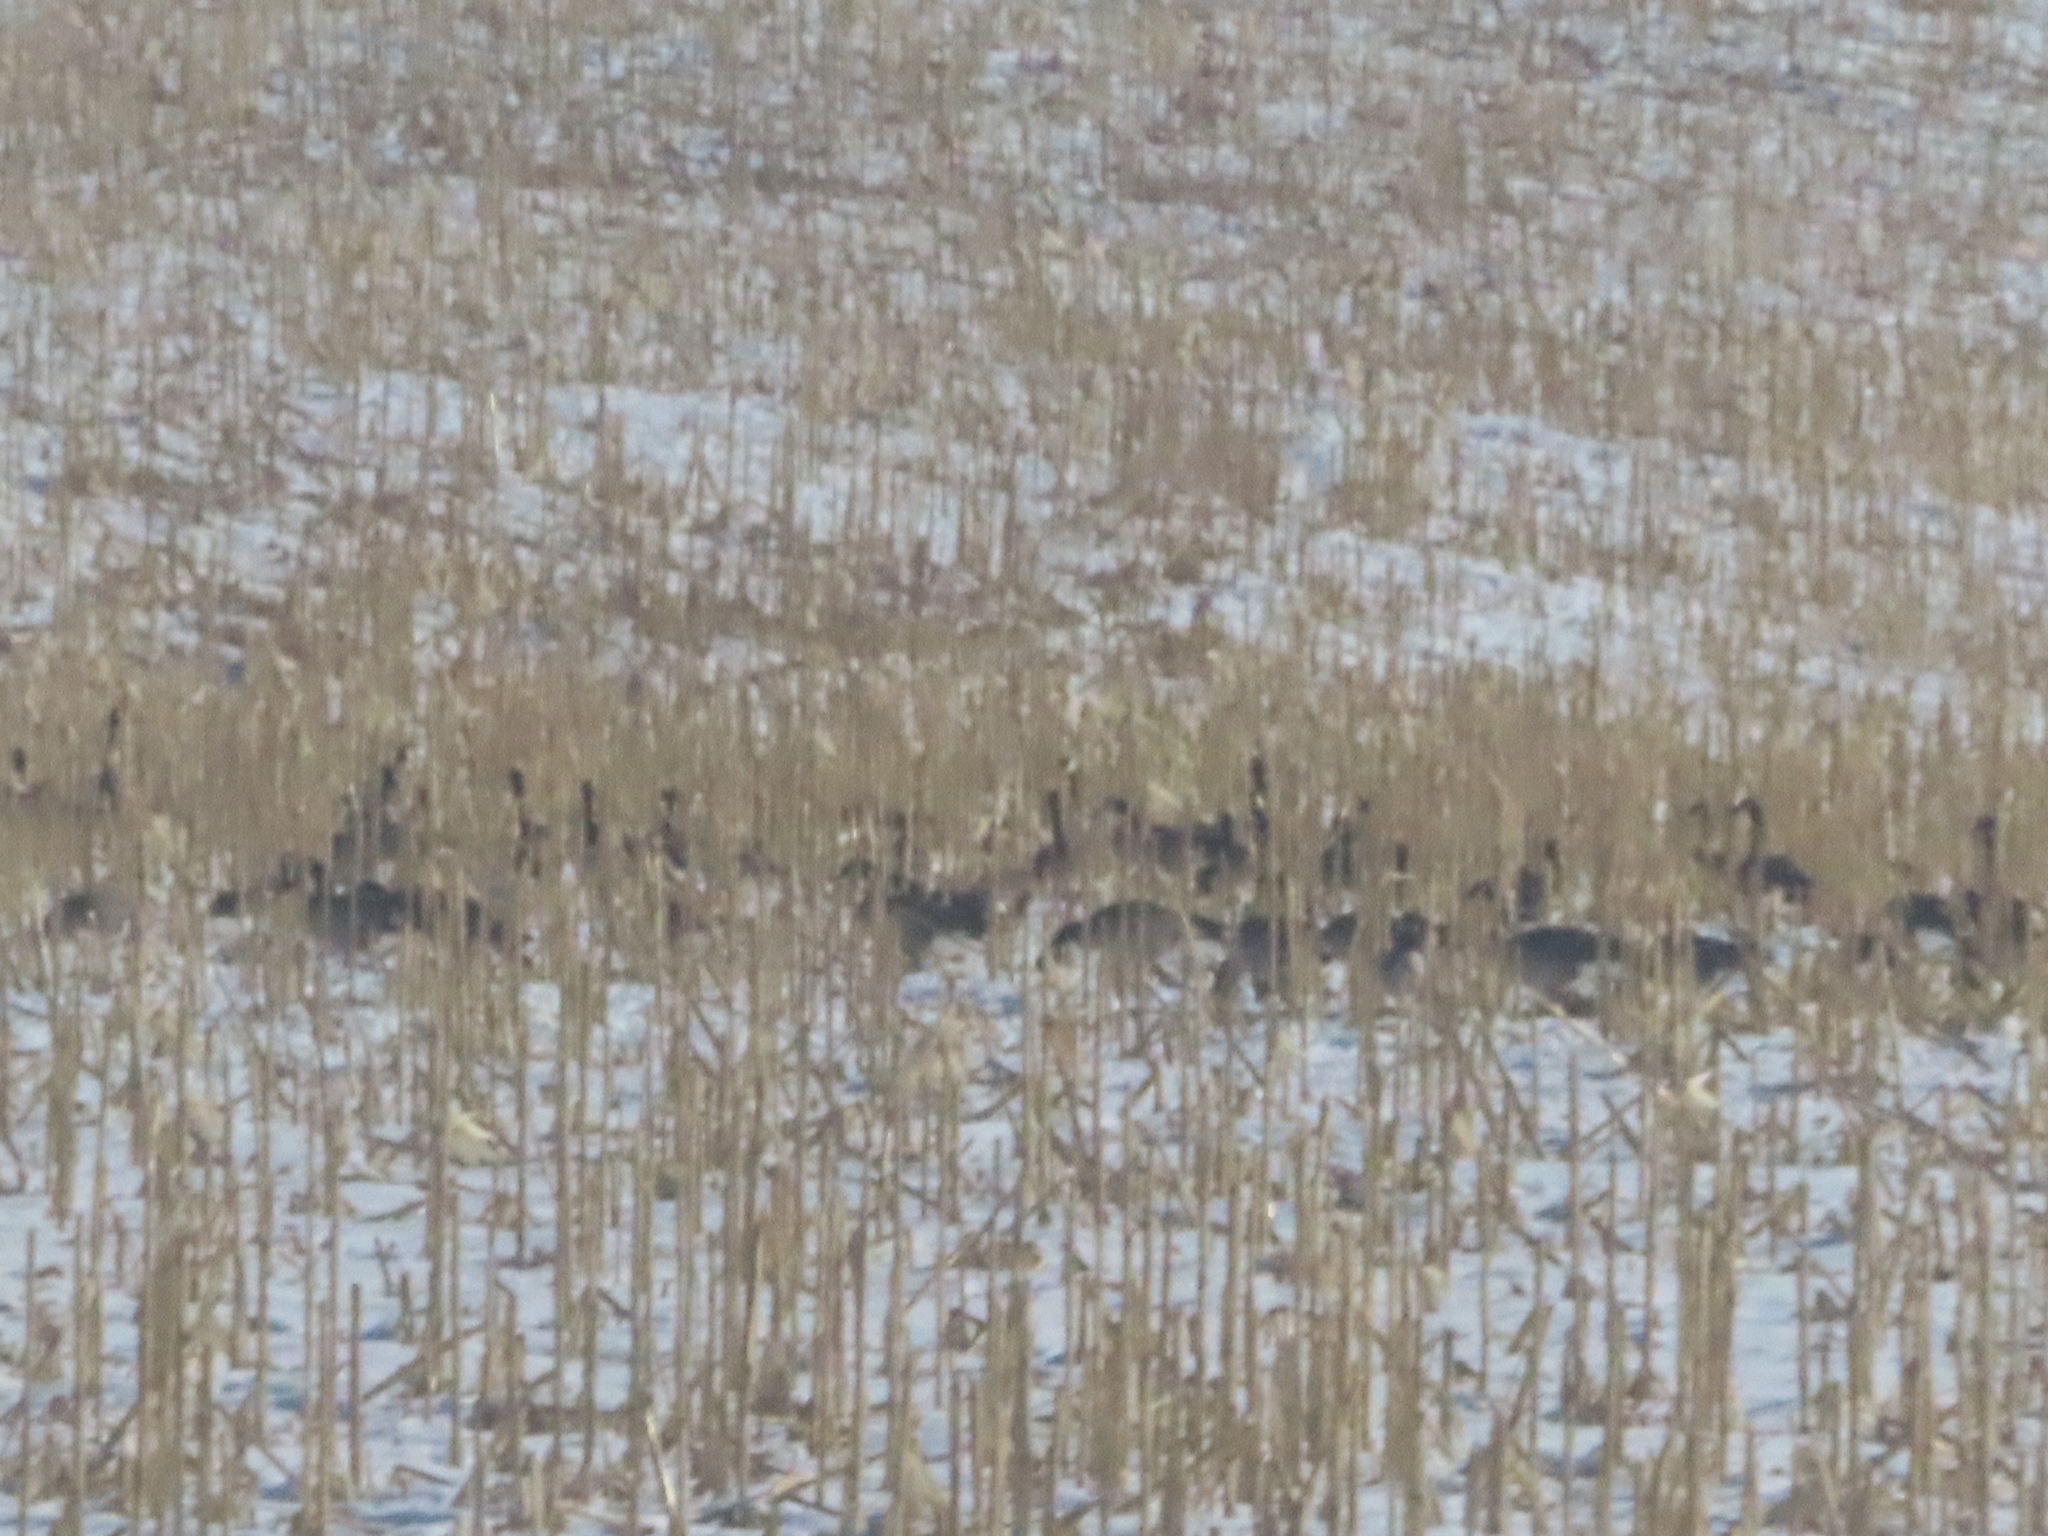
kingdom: Animalia
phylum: Chordata
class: Aves
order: Anseriformes
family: Anatidae
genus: Branta
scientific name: Branta canadensis
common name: Canada goose
